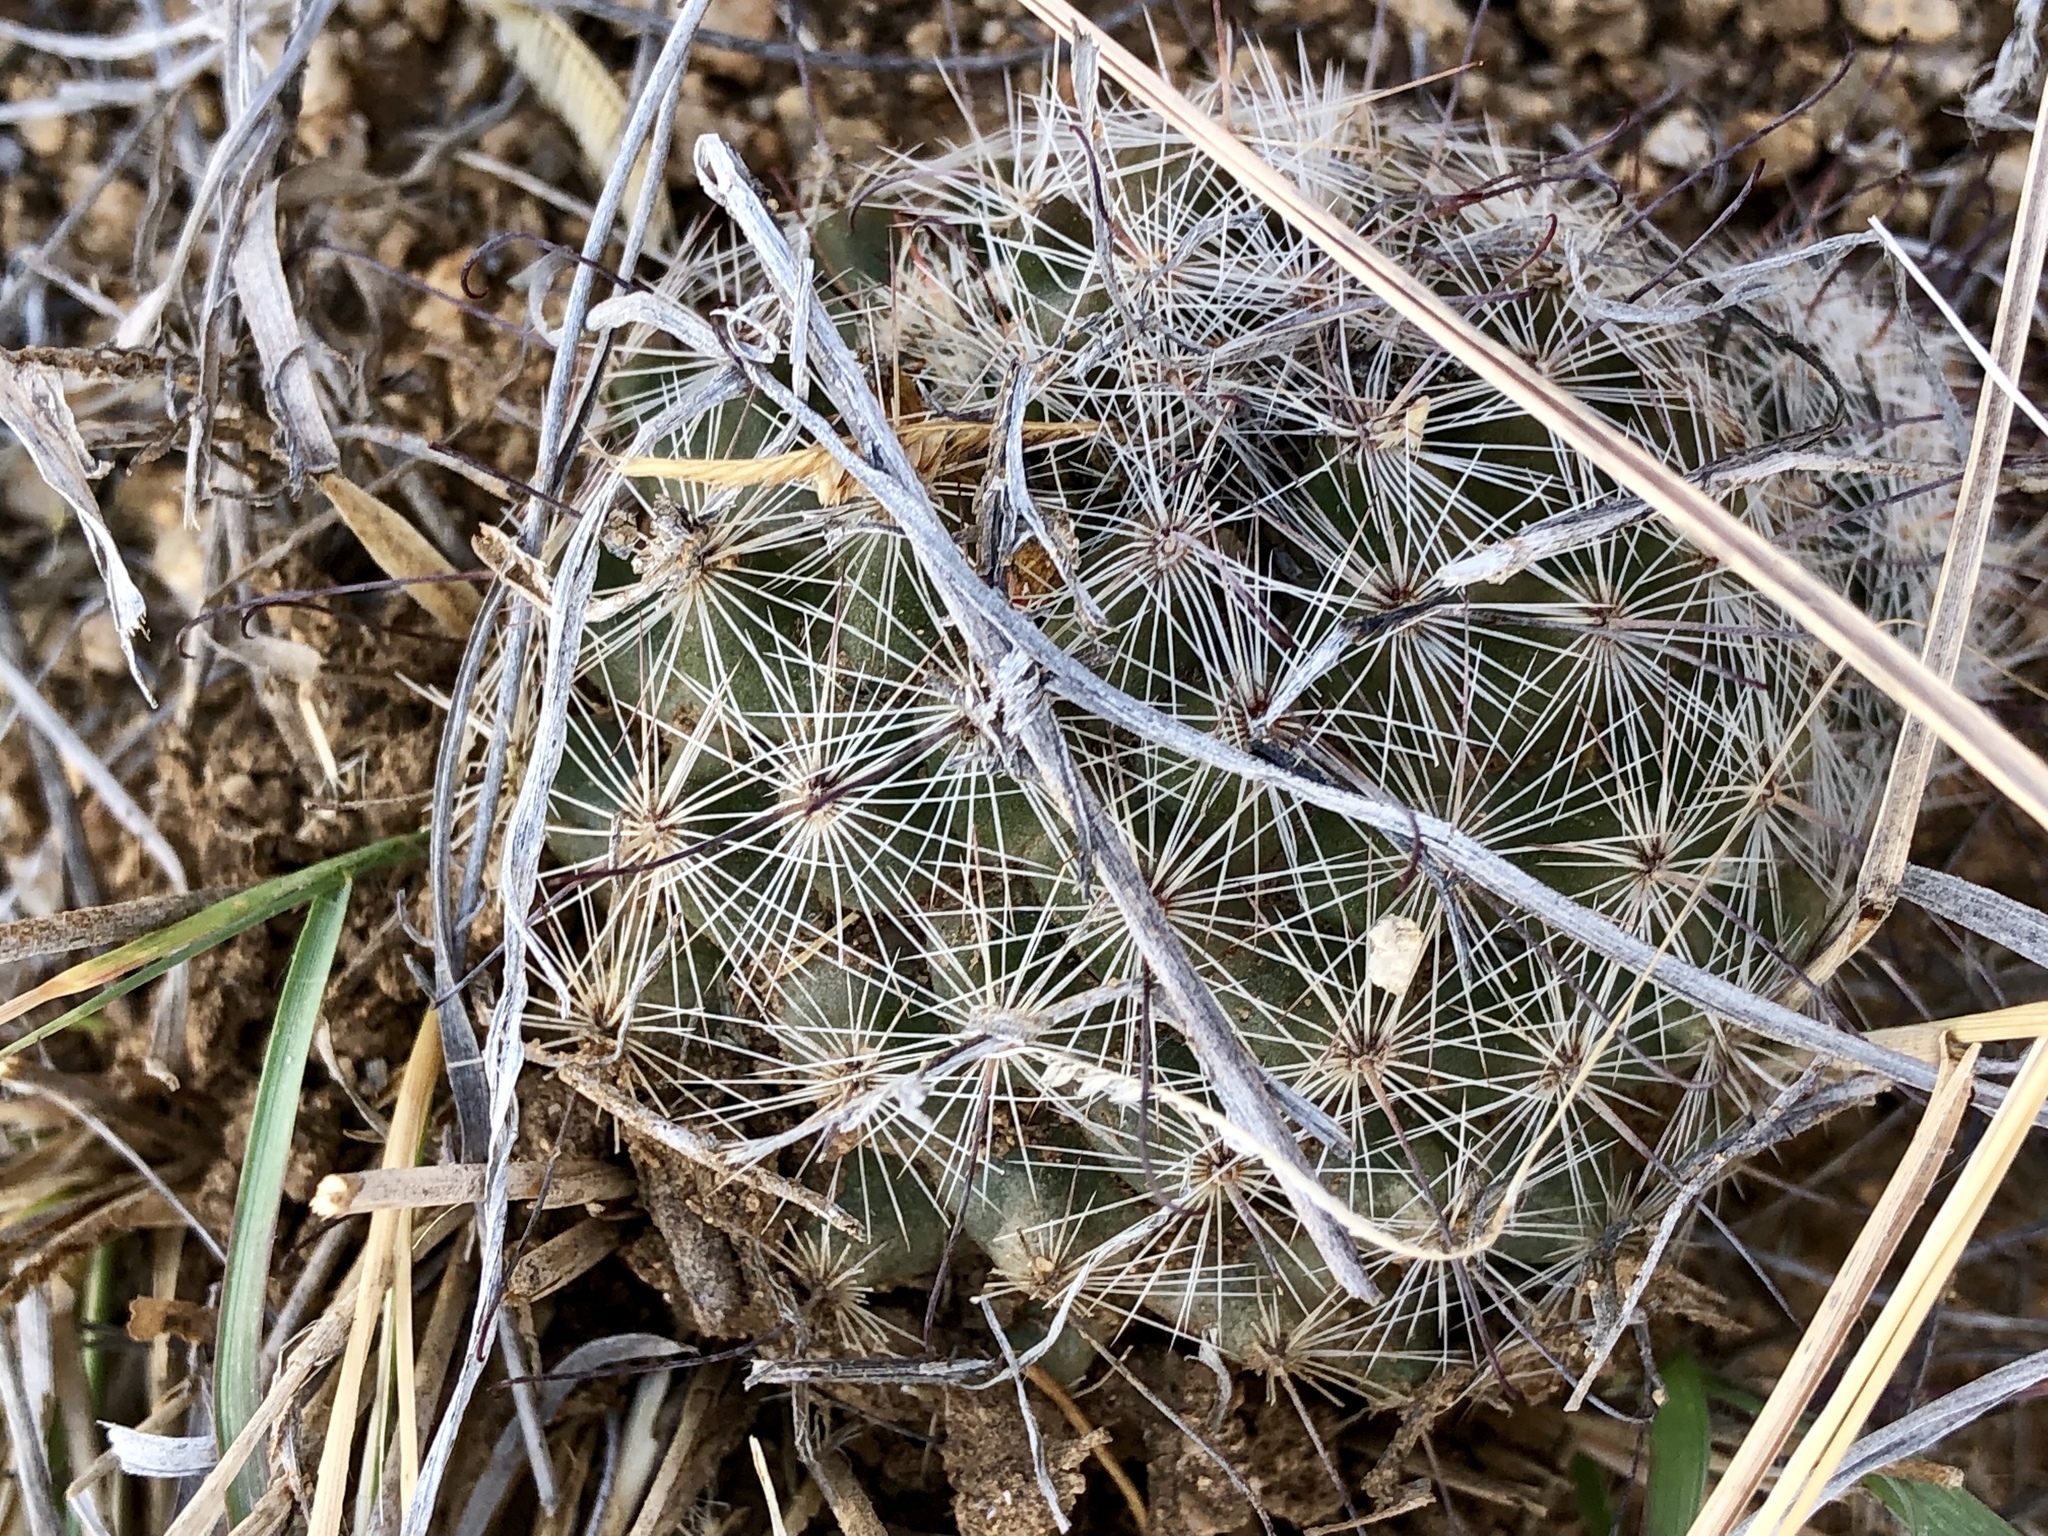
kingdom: Plantae
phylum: Tracheophyta
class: Magnoliopsida
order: Caryophyllales
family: Cactaceae
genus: Cochemiea
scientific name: Cochemiea grahamii
